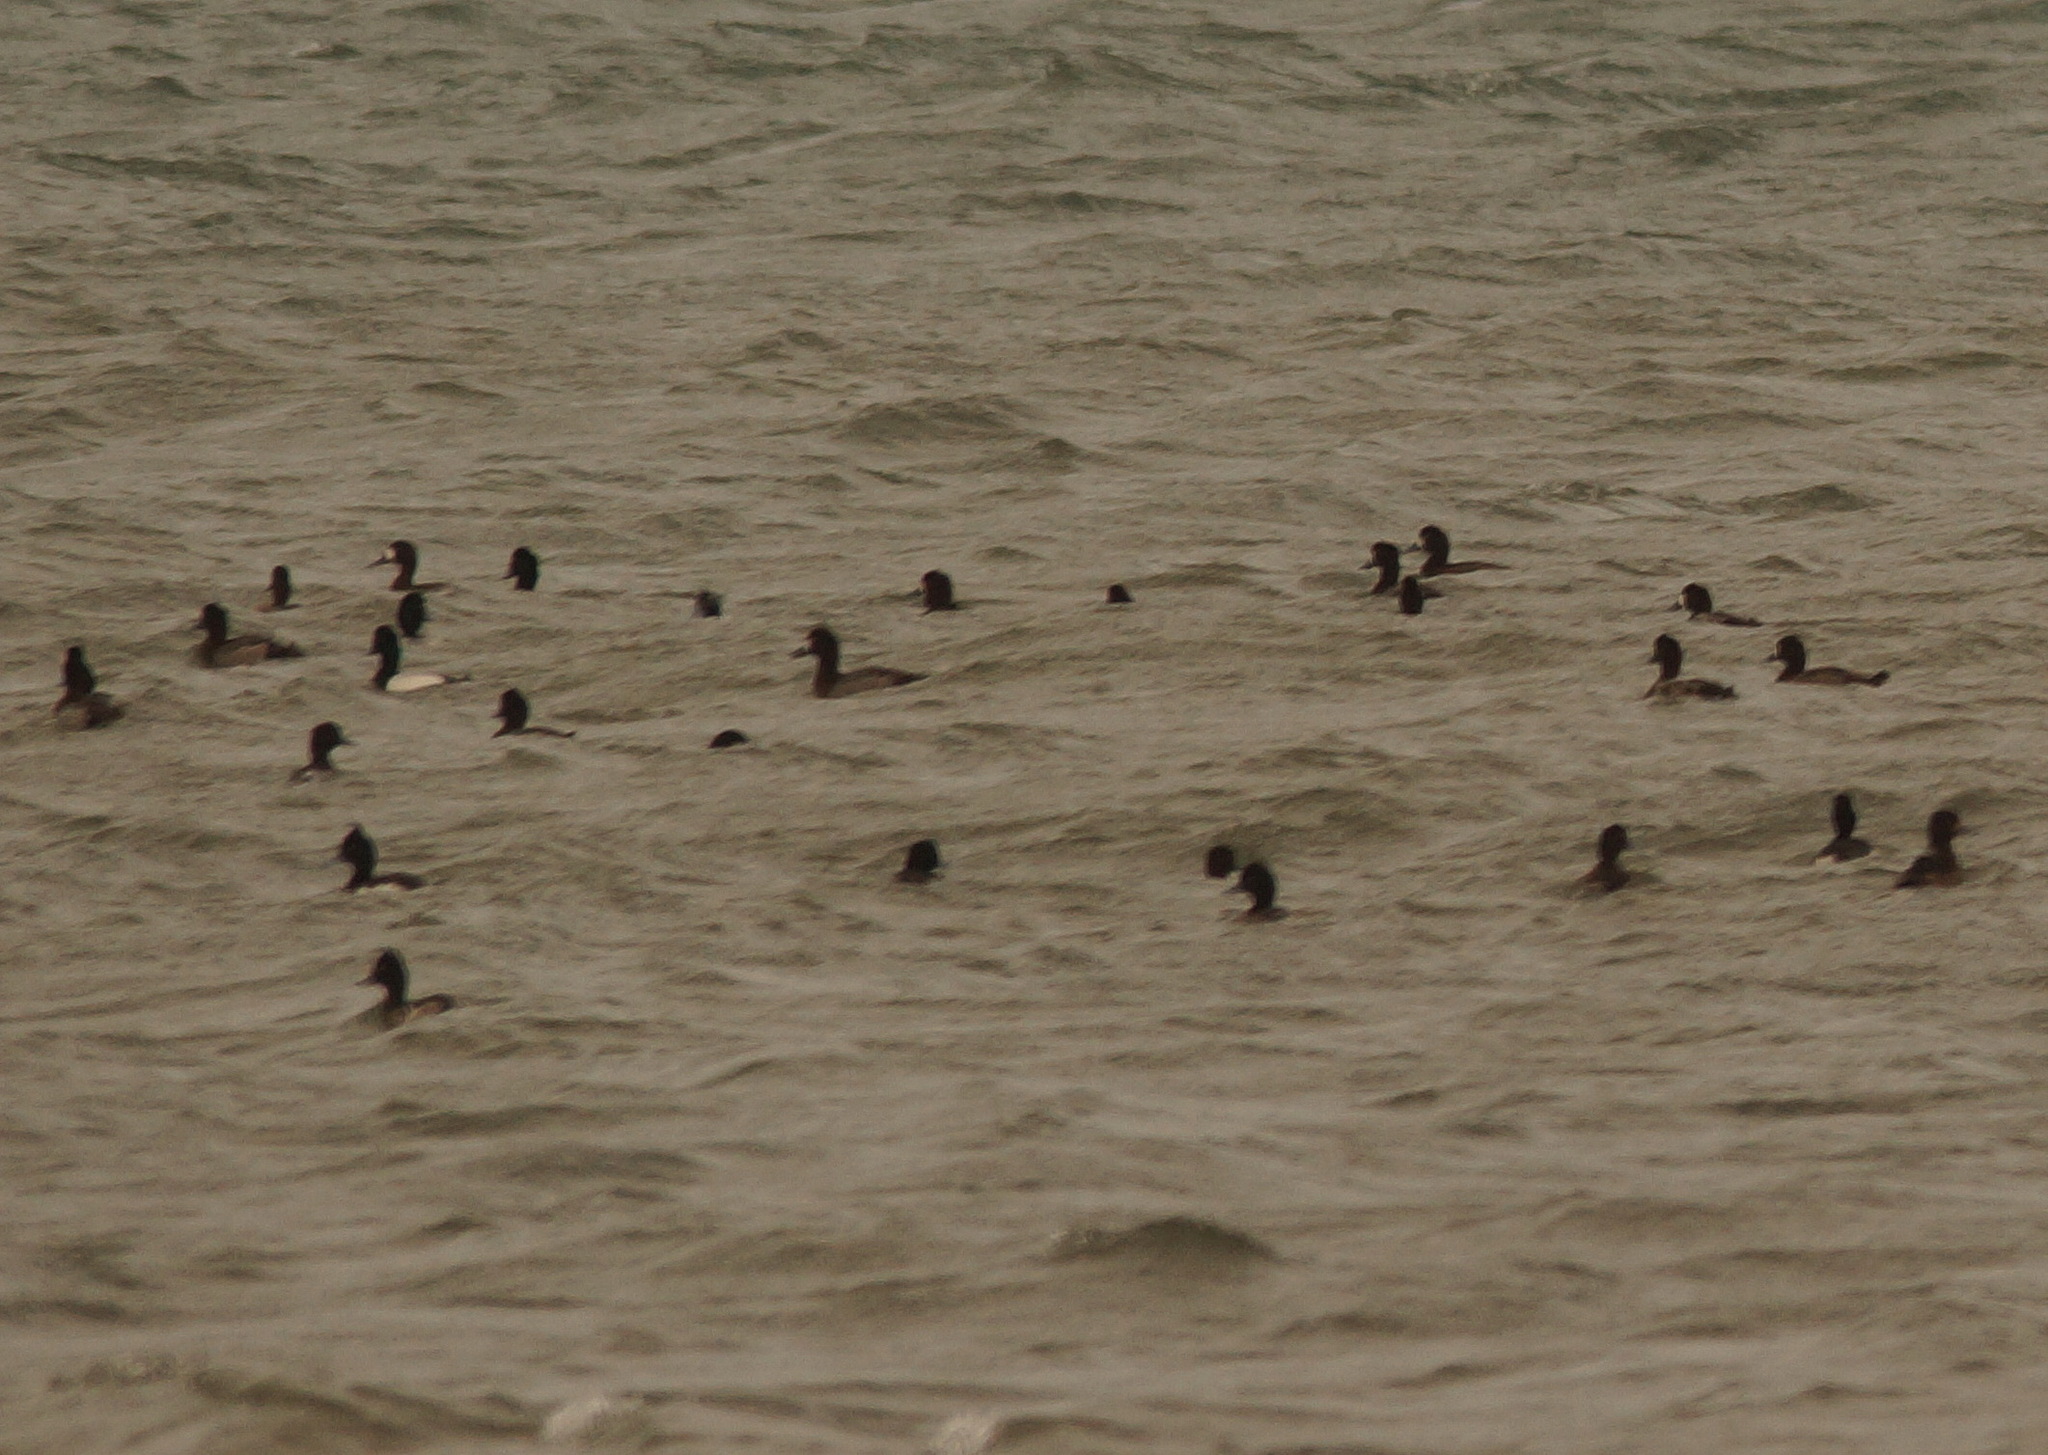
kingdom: Animalia
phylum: Chordata
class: Aves
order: Anseriformes
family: Anatidae
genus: Aythya
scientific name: Aythya fuligula
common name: Tufted duck
